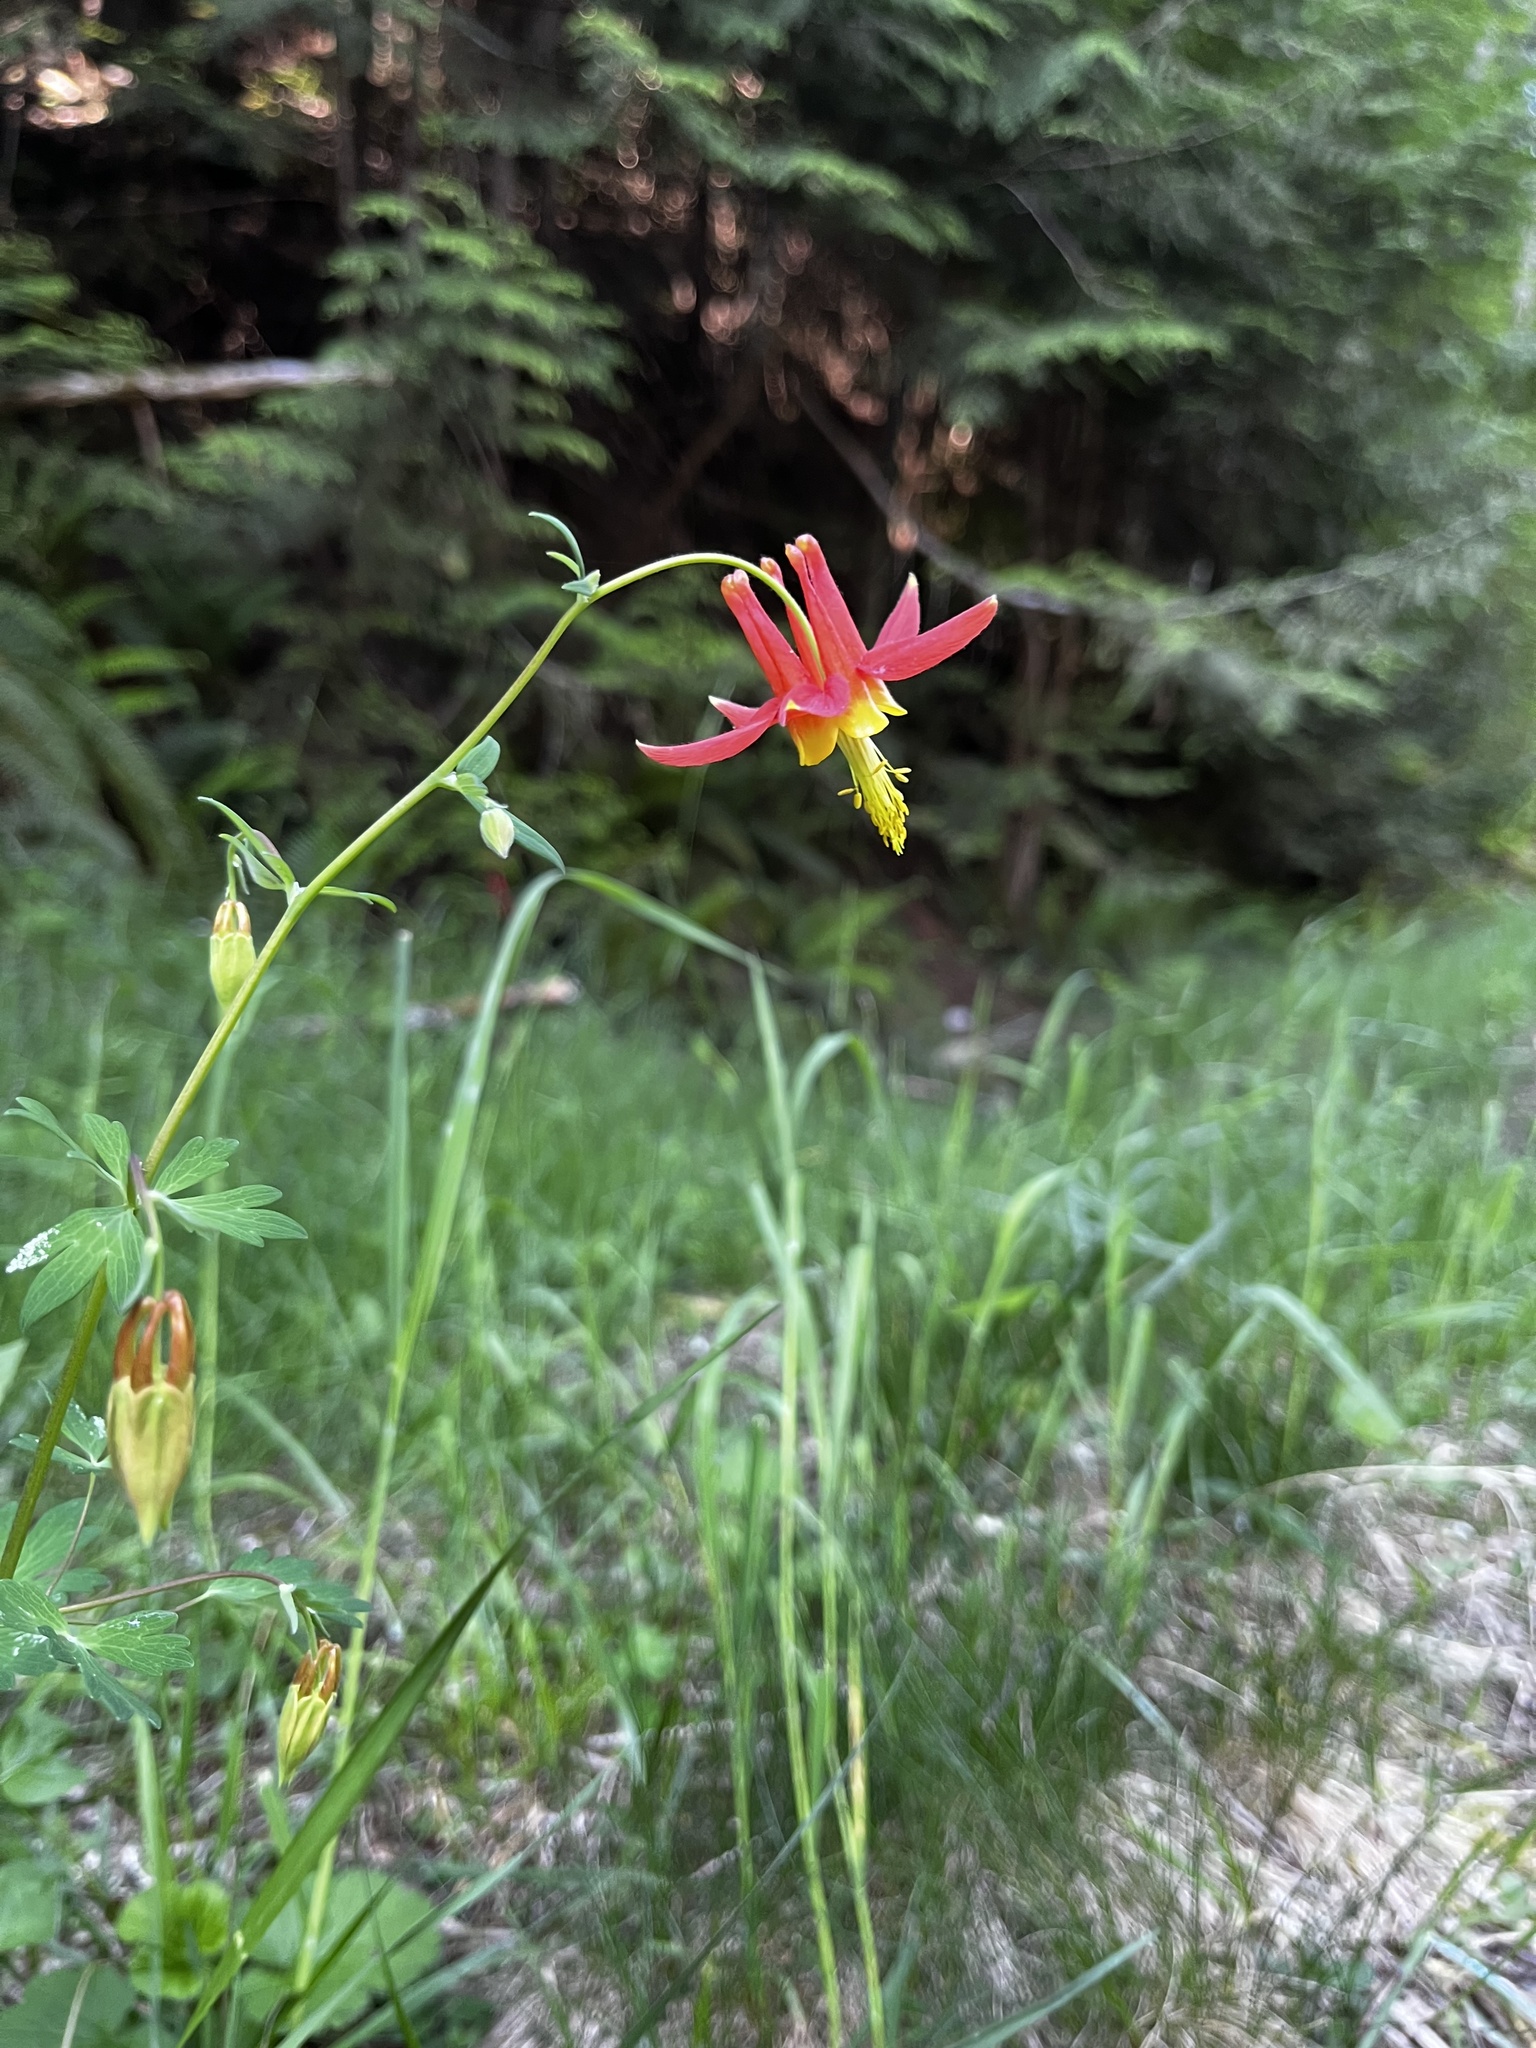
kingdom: Plantae
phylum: Tracheophyta
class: Magnoliopsida
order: Ranunculales
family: Ranunculaceae
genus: Aquilegia
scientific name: Aquilegia formosa
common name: Sitka columbine
